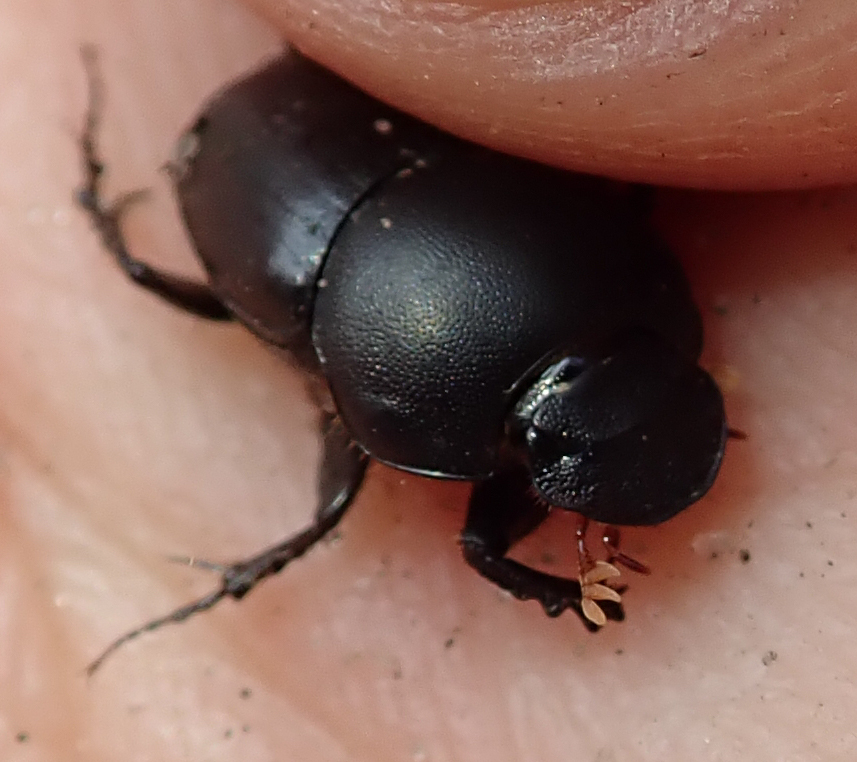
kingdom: Animalia
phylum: Arthropoda
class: Insecta
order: Coleoptera
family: Scarabaeidae
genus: Euonthophagus
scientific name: Euonthophagus carbonarius
